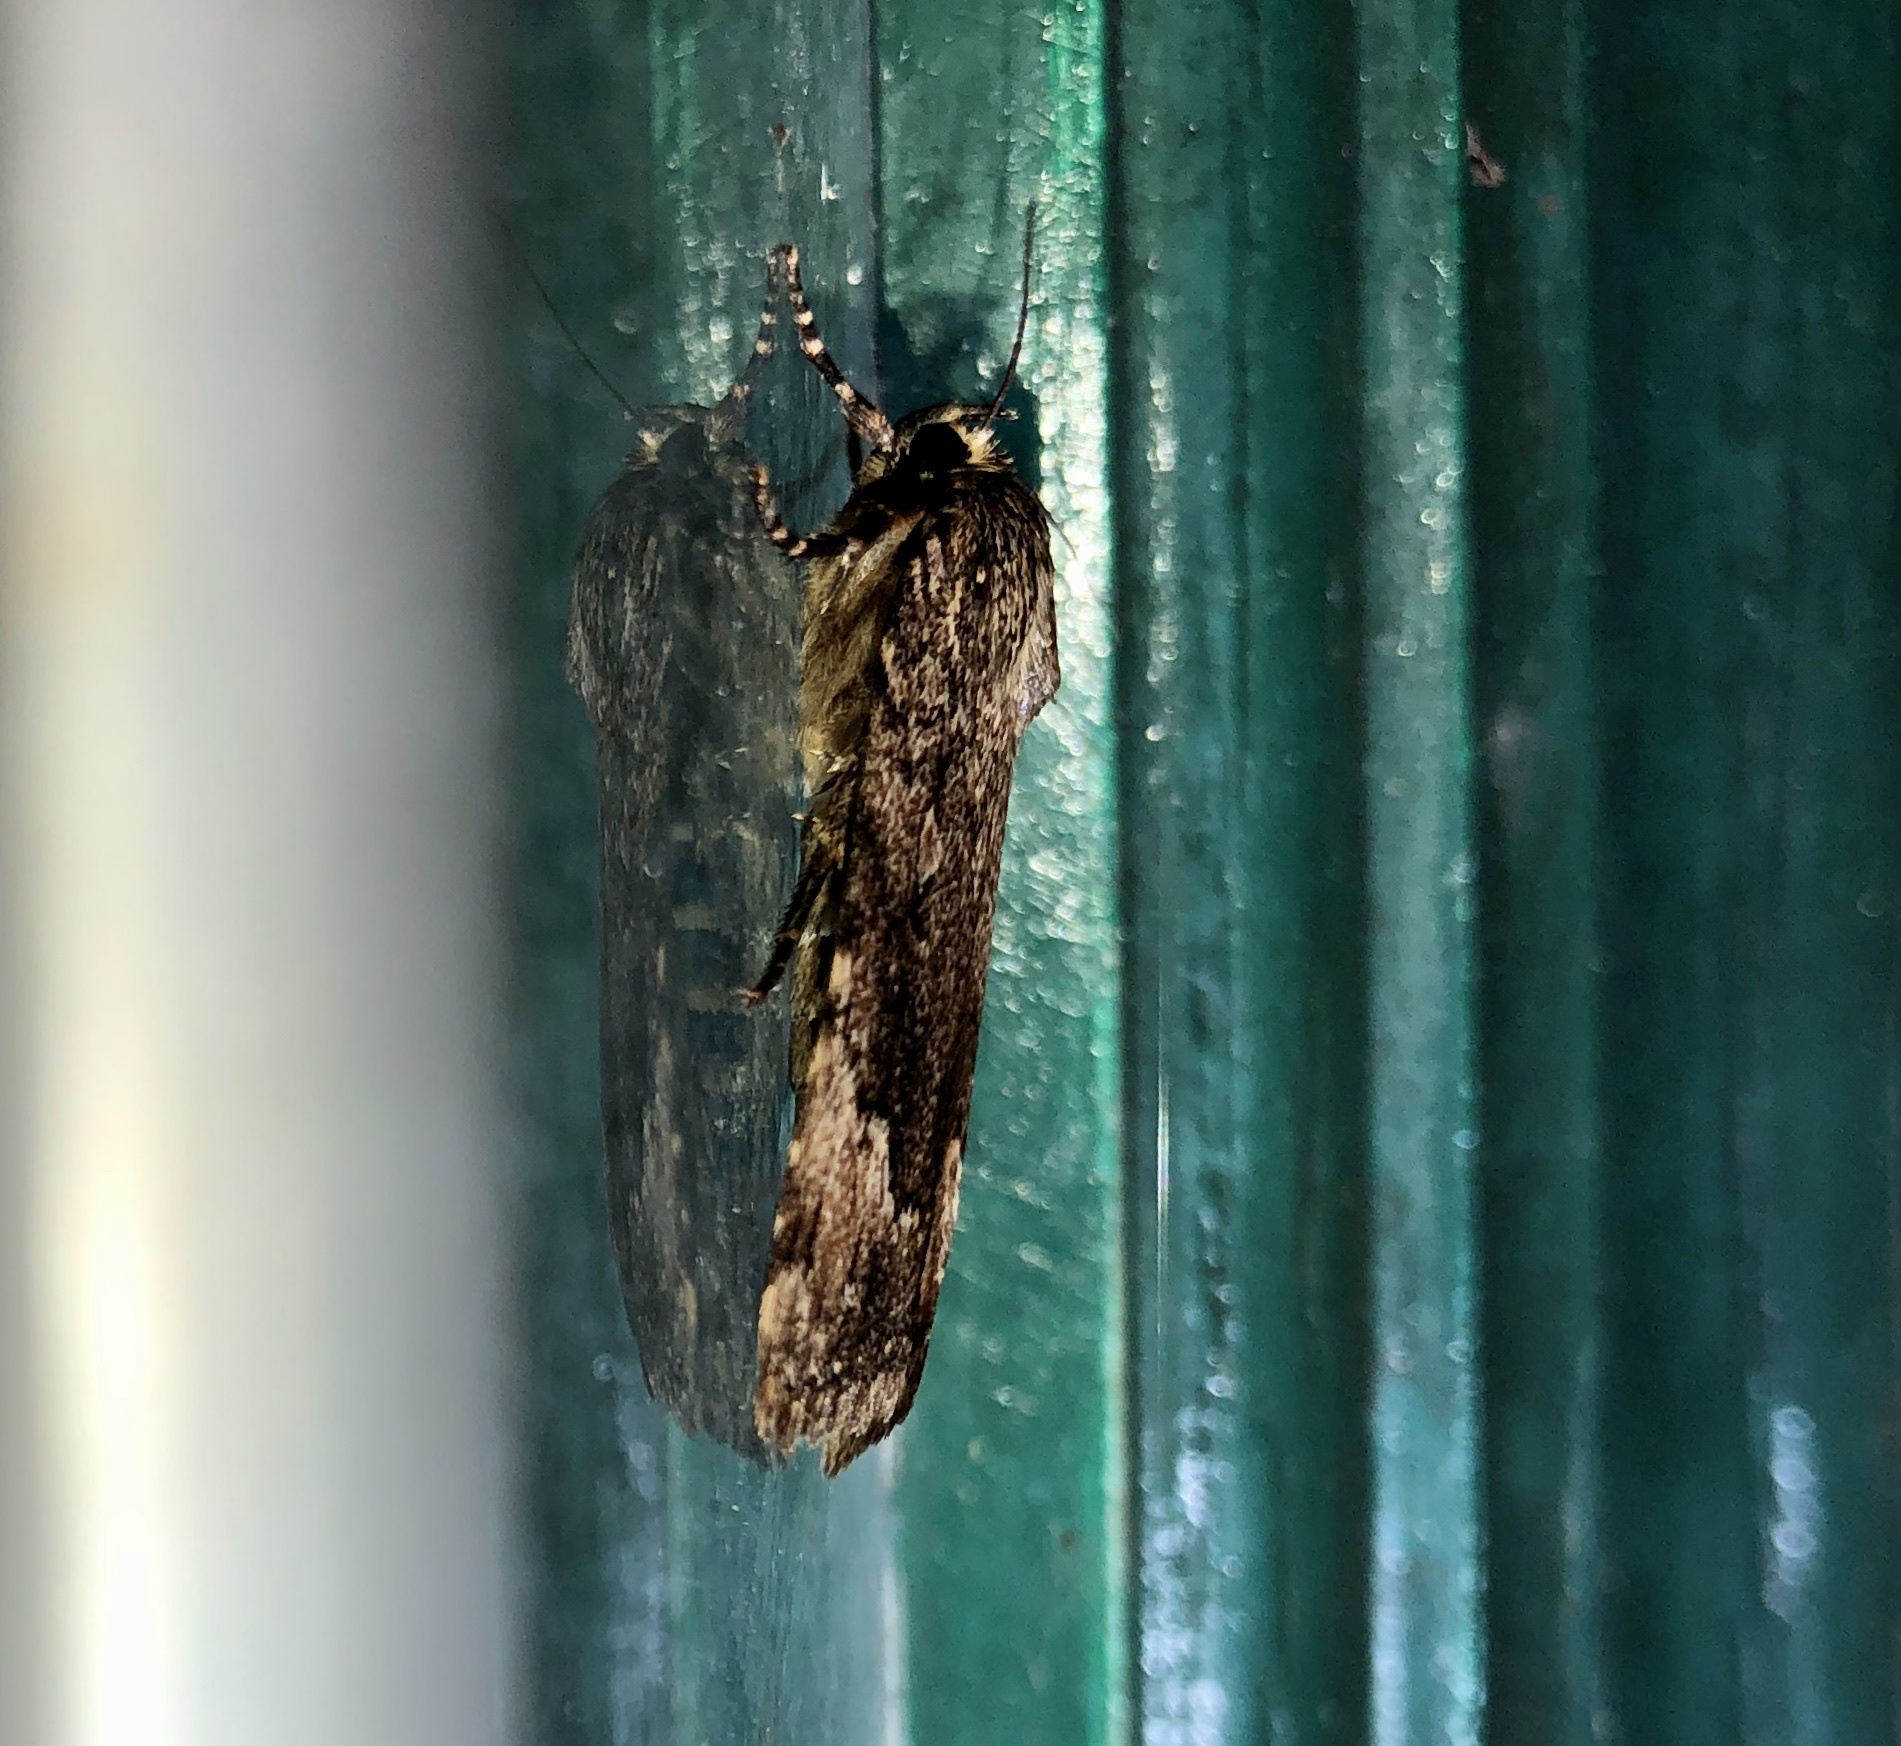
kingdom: Animalia
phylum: Arthropoda
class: Insecta
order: Lepidoptera
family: Noctuidae
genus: Amphipyra
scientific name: Amphipyra pyramidoides
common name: American copper underwing
